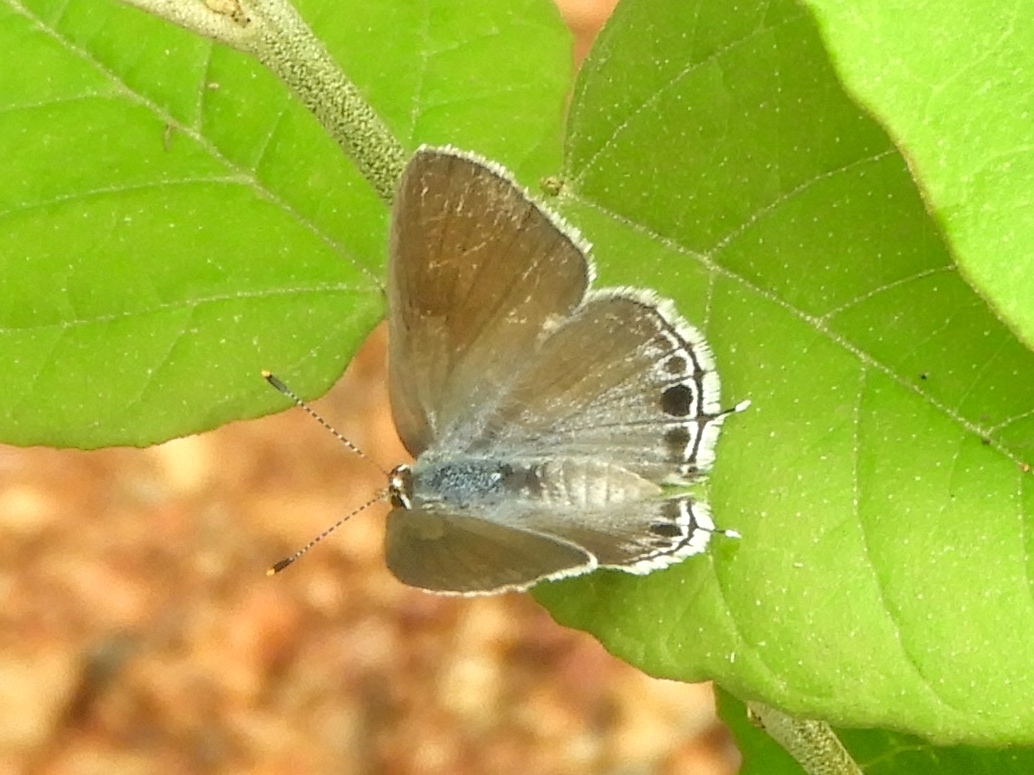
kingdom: Animalia
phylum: Arthropoda
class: Insecta
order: Lepidoptera
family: Lycaenidae
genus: Callicista
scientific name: Callicista columella
